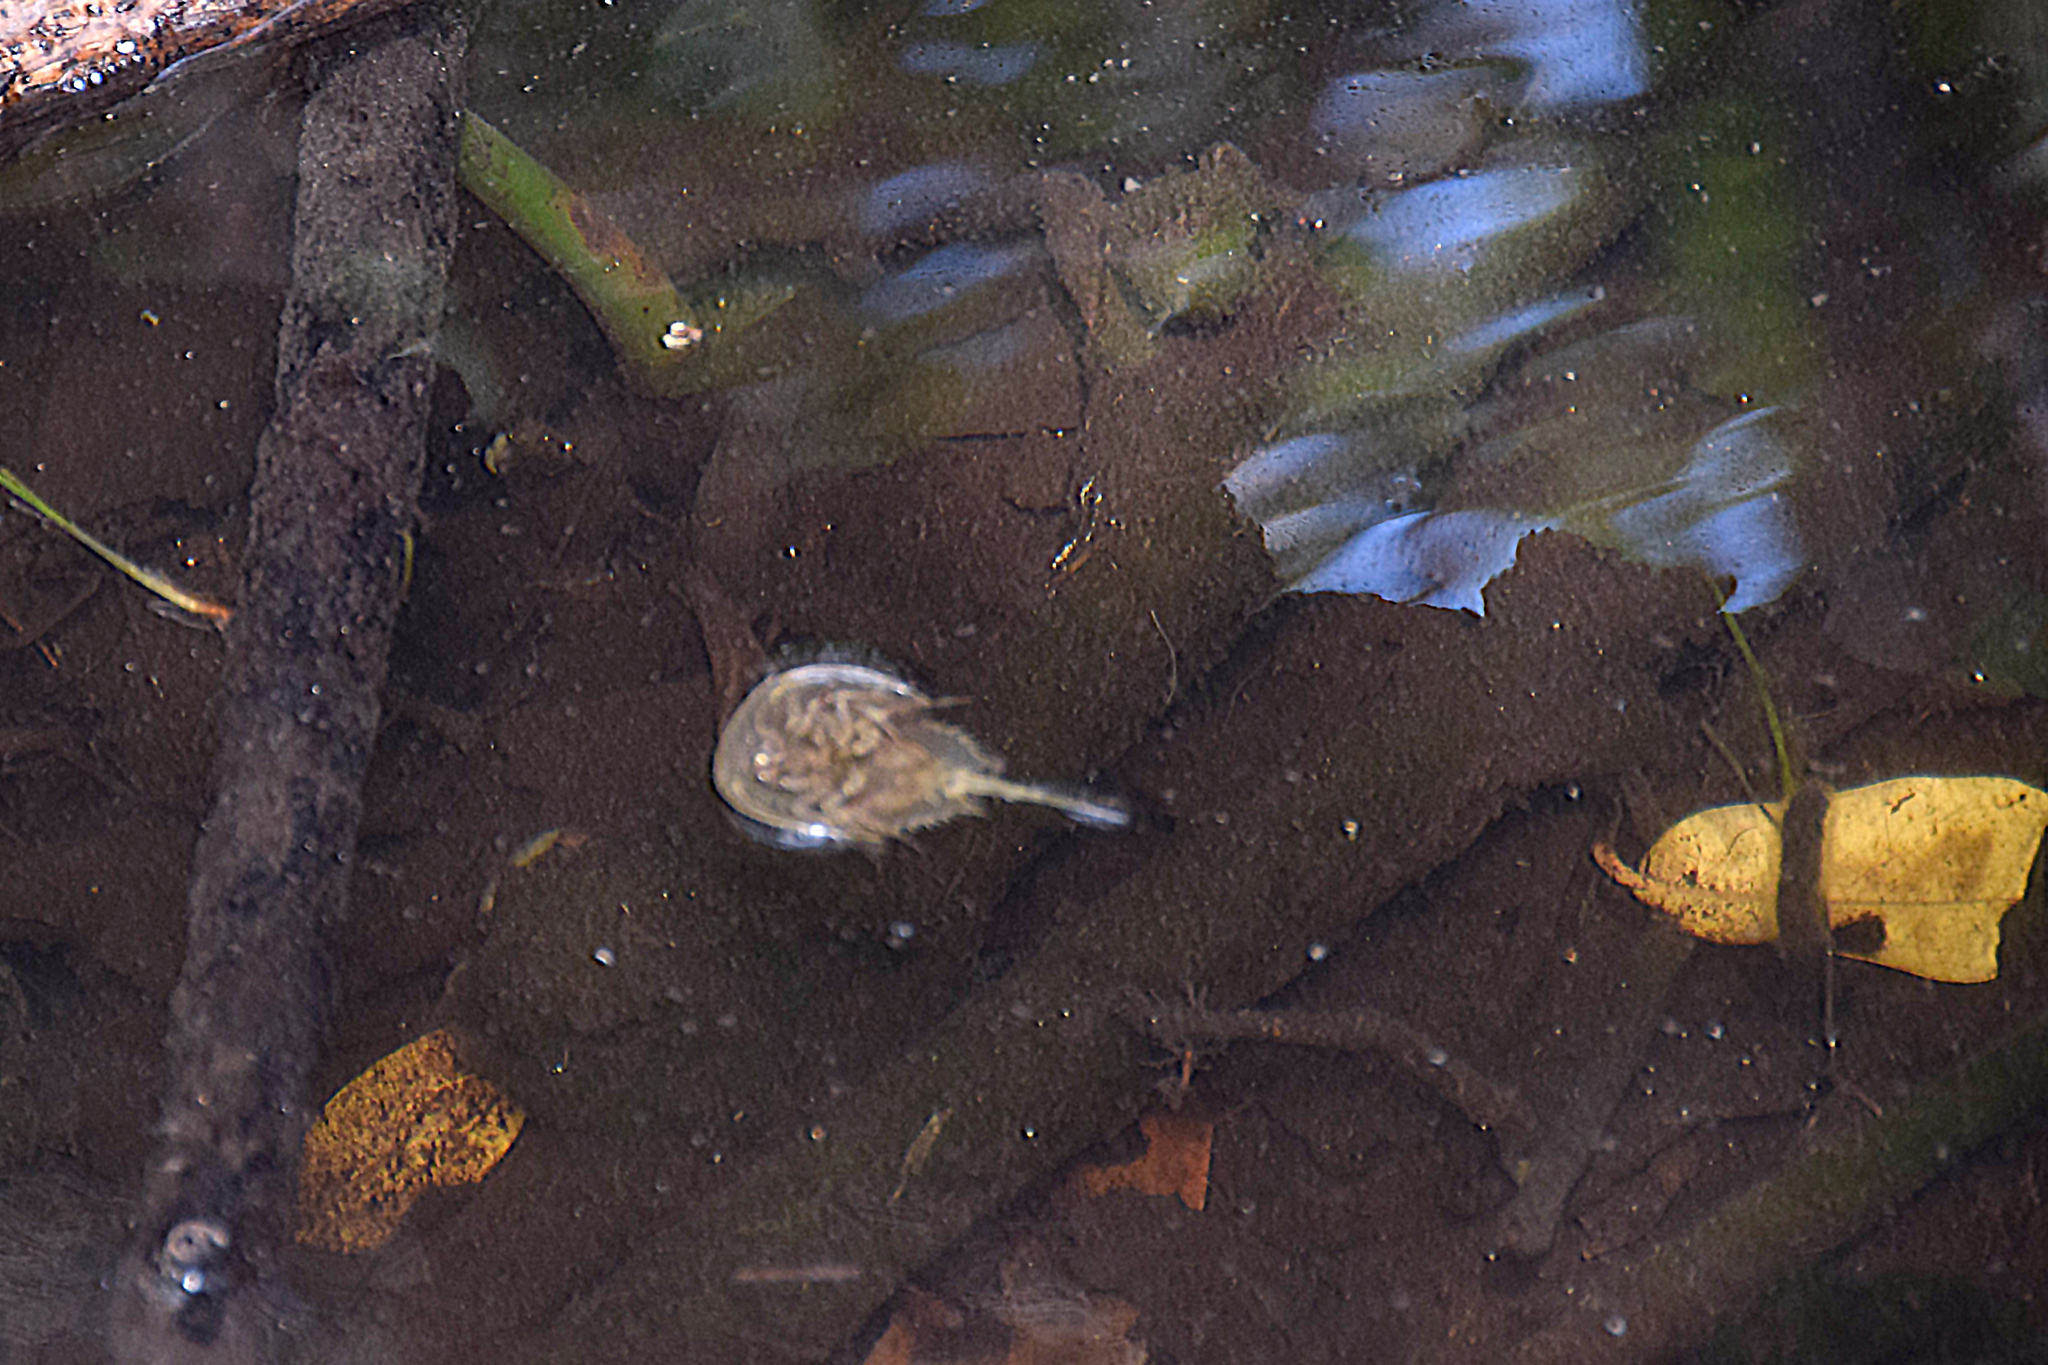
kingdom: Animalia
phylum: Arthropoda
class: Merostomata
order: Xiphosurida
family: Limulidae
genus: Limulus
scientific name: Limulus polyphemus
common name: Horseshoe crab
